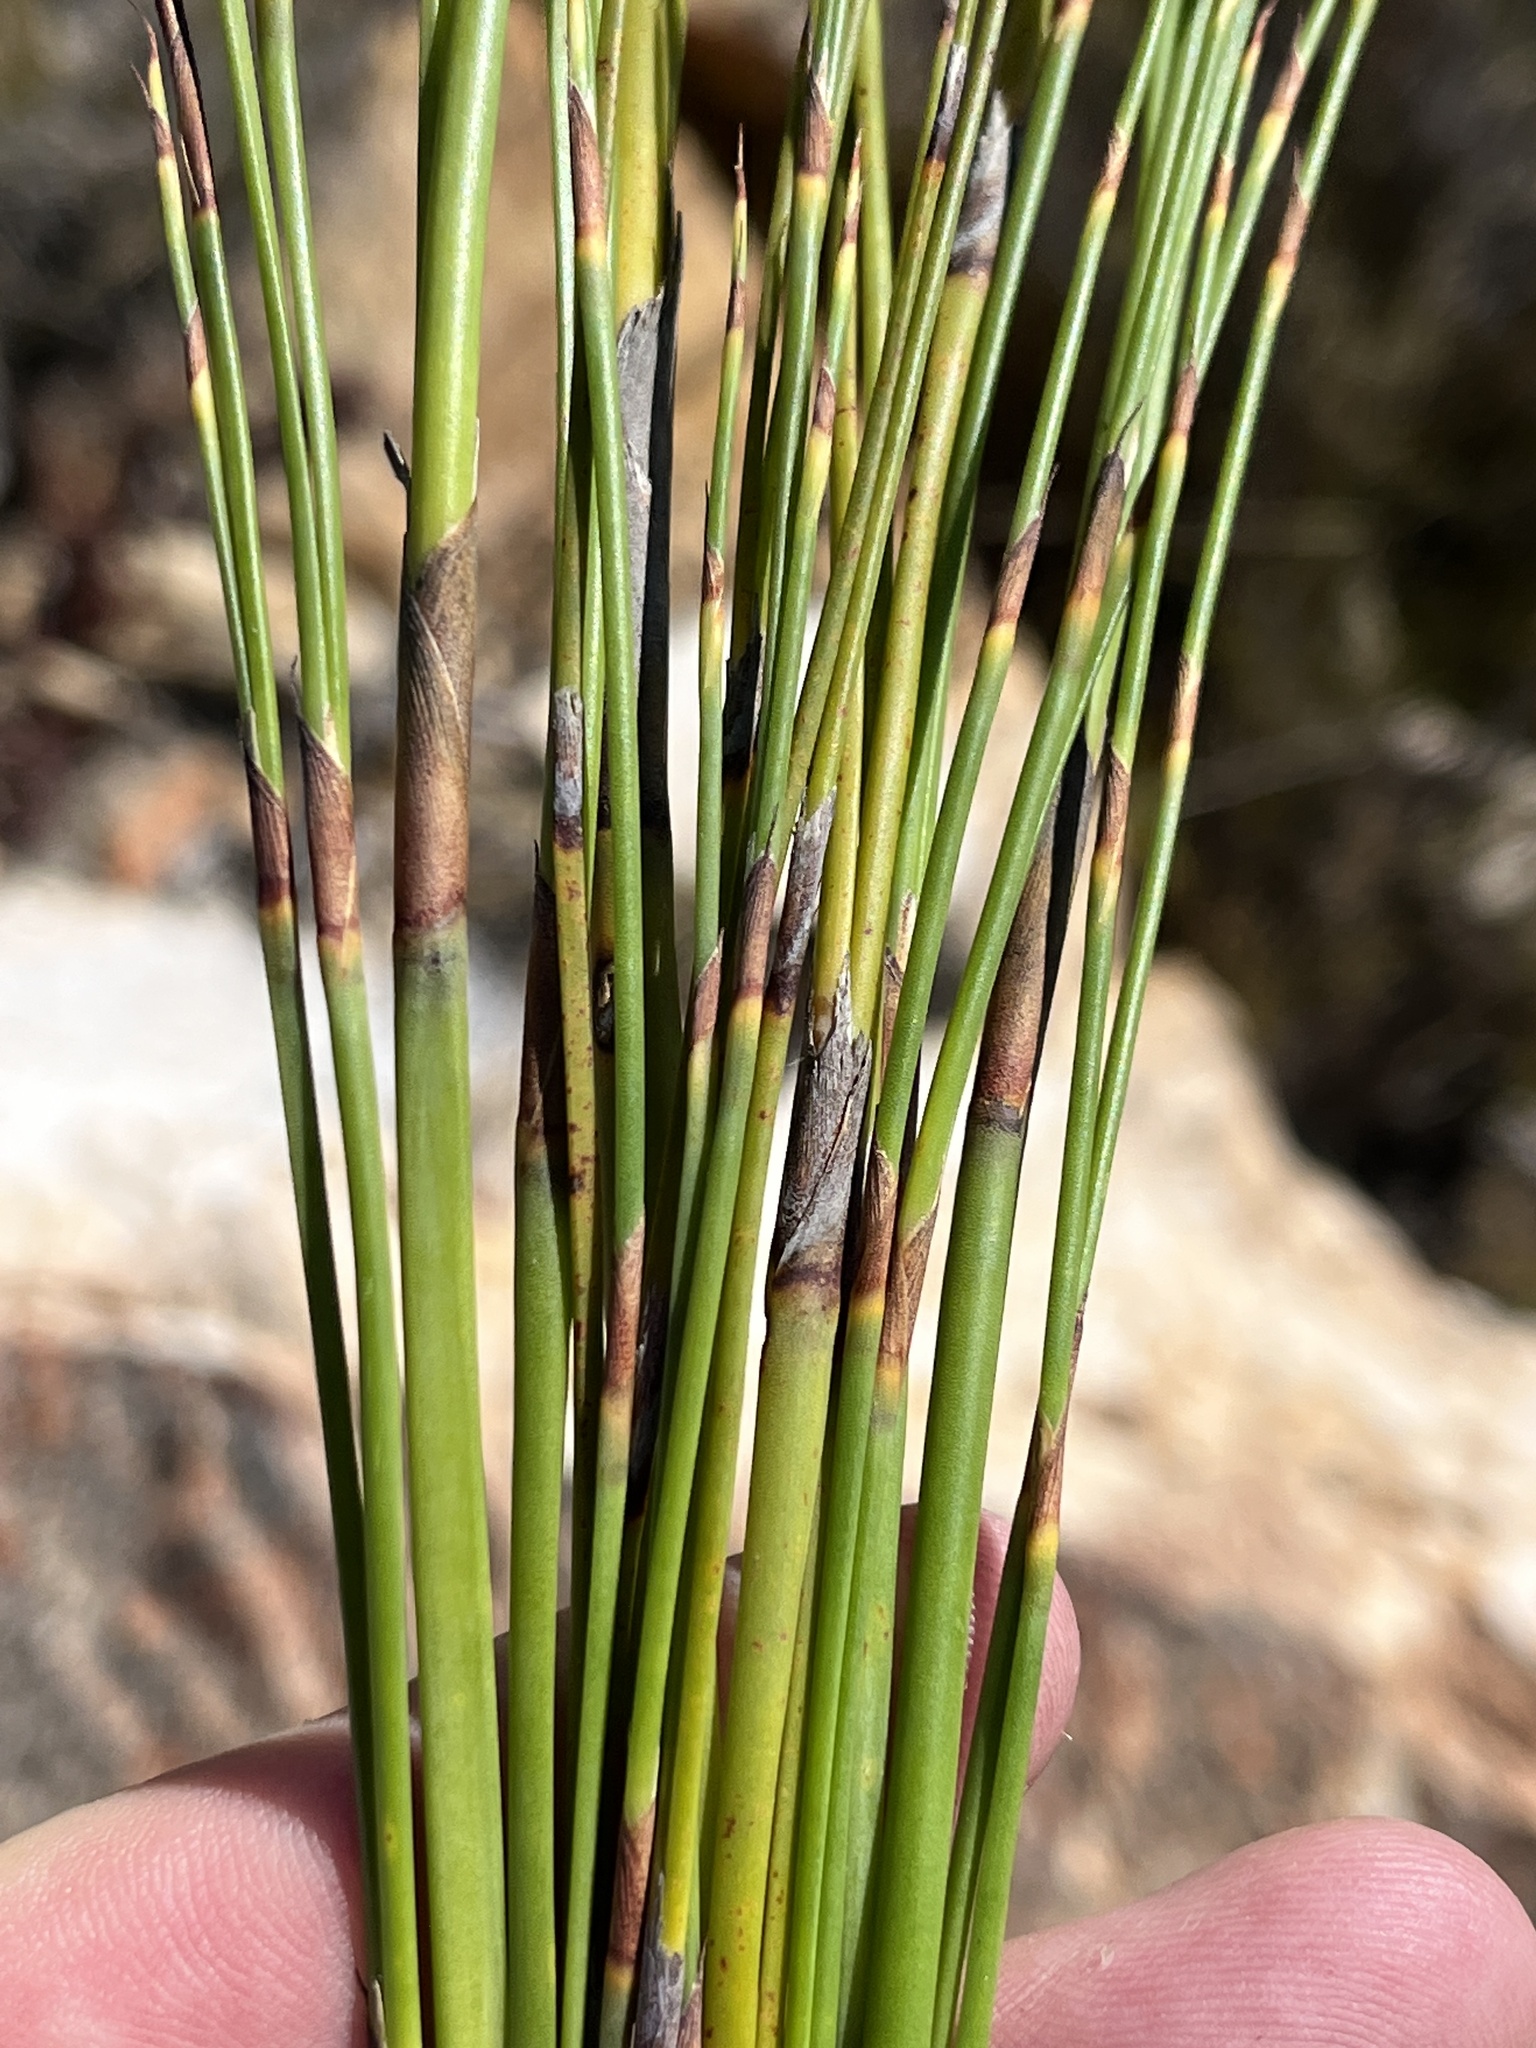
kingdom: Plantae
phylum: Tracheophyta
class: Liliopsida
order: Poales
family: Restionaceae
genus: Cannomois
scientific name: Cannomois virgata
